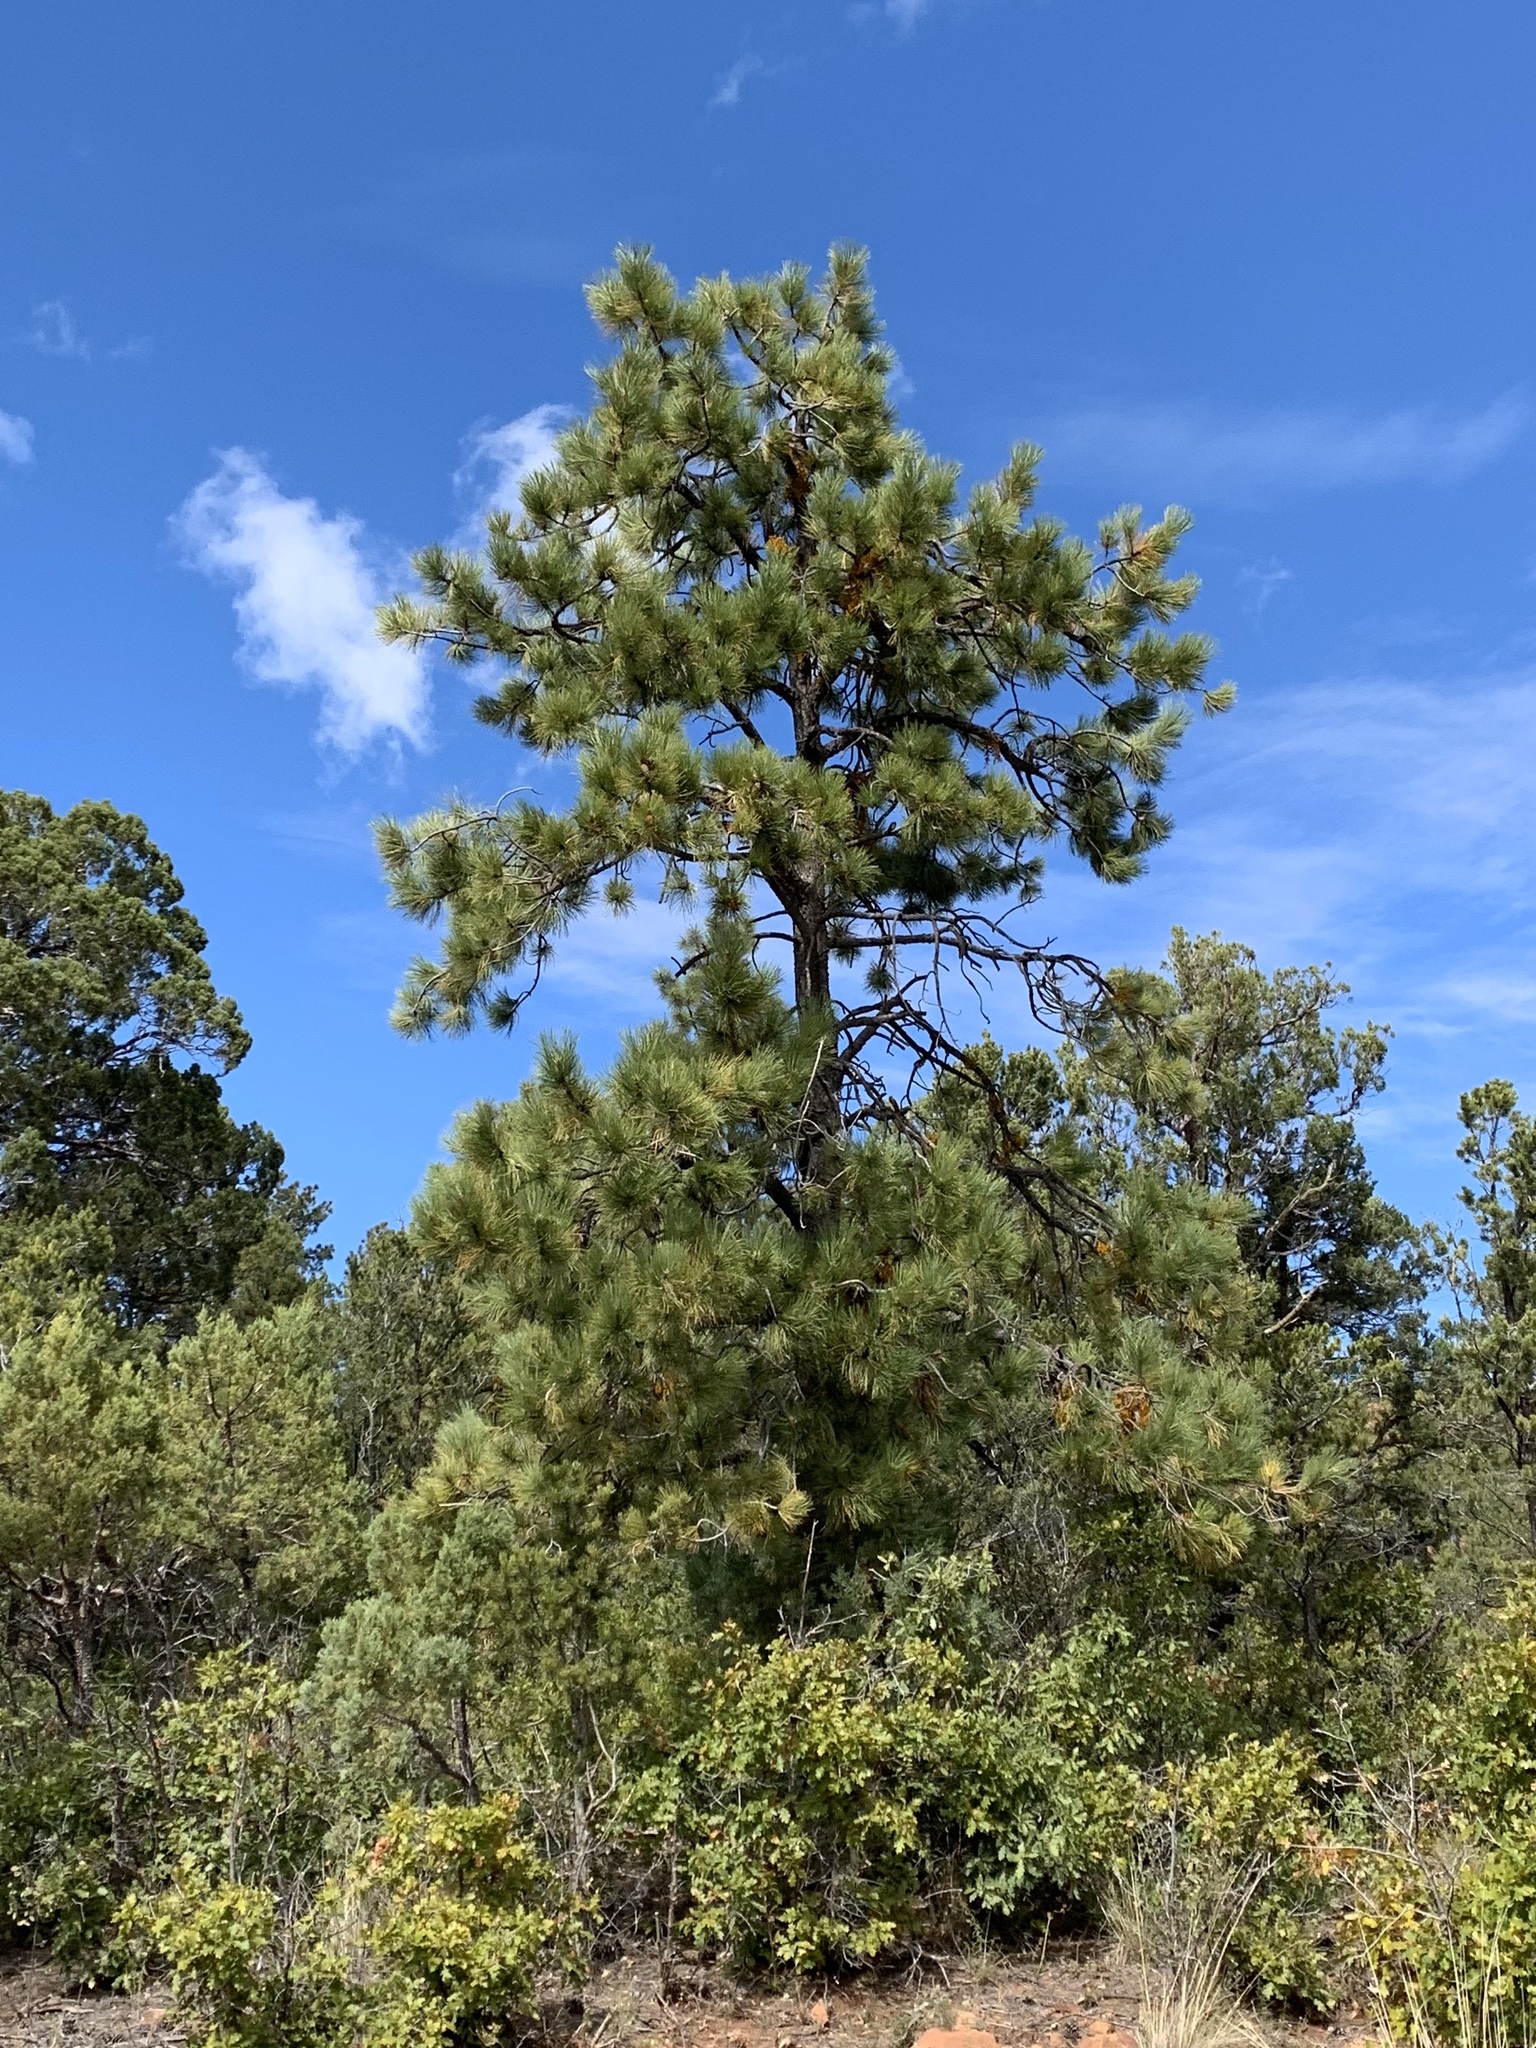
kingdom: Plantae
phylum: Tracheophyta
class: Pinopsida
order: Pinales
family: Pinaceae
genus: Pinus
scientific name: Pinus ponderosa
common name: Western yellow-pine
